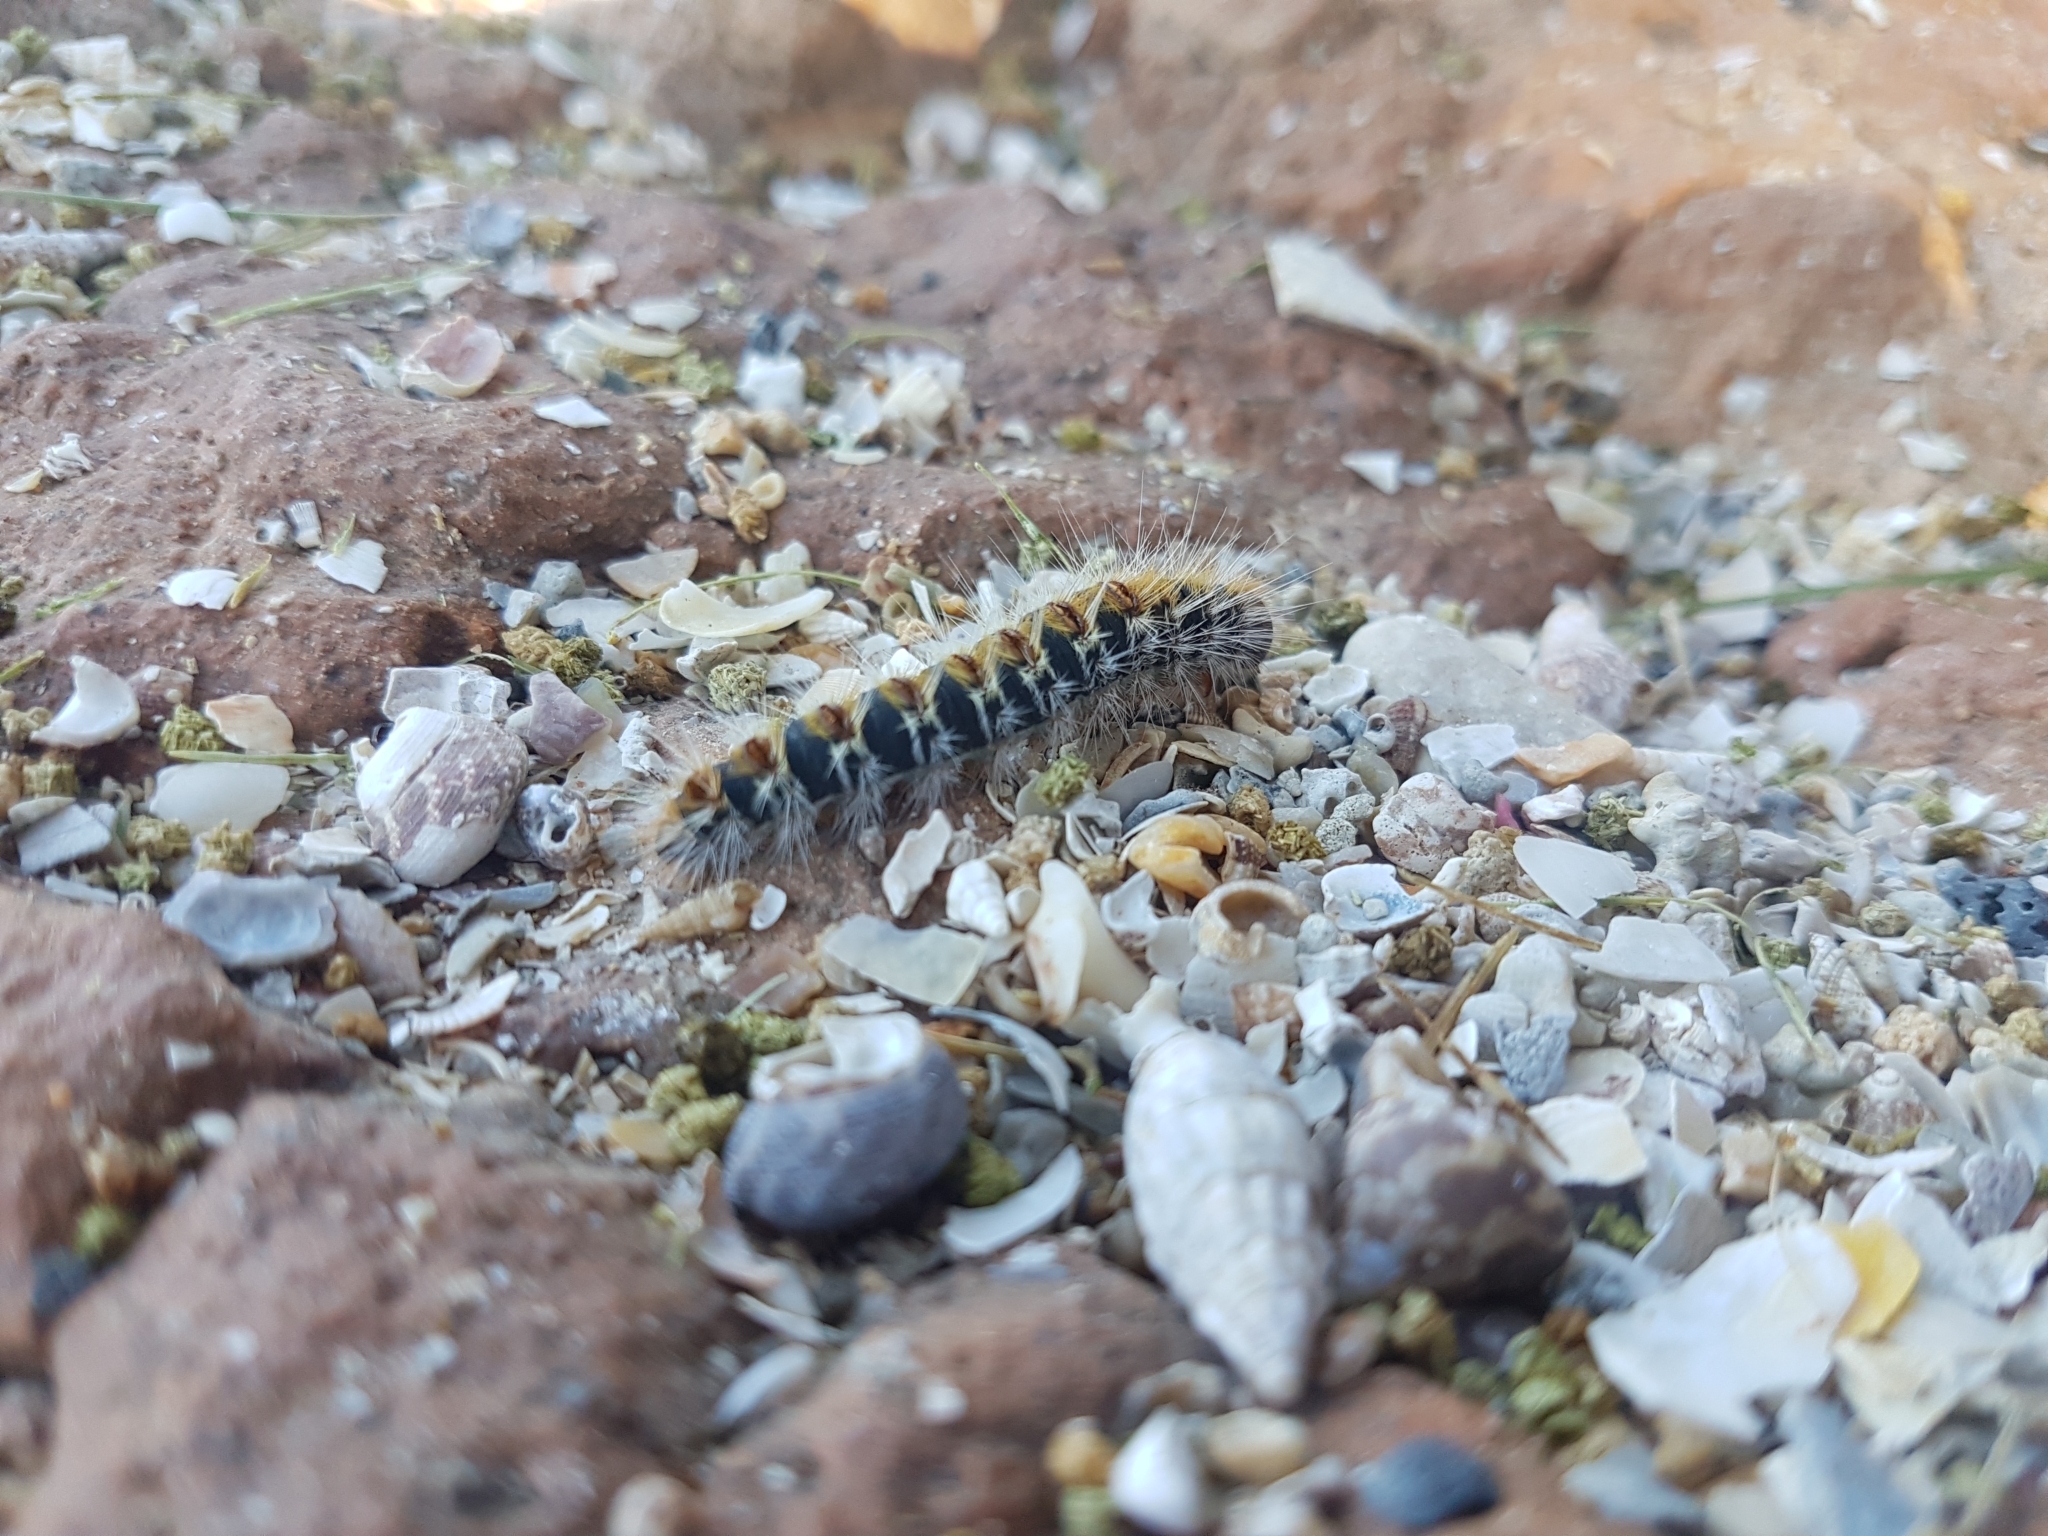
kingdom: Animalia
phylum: Arthropoda
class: Insecta
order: Lepidoptera
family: Notodontidae
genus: Thaumetopoea
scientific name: Thaumetopoea pityocampa
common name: Pine processionary
